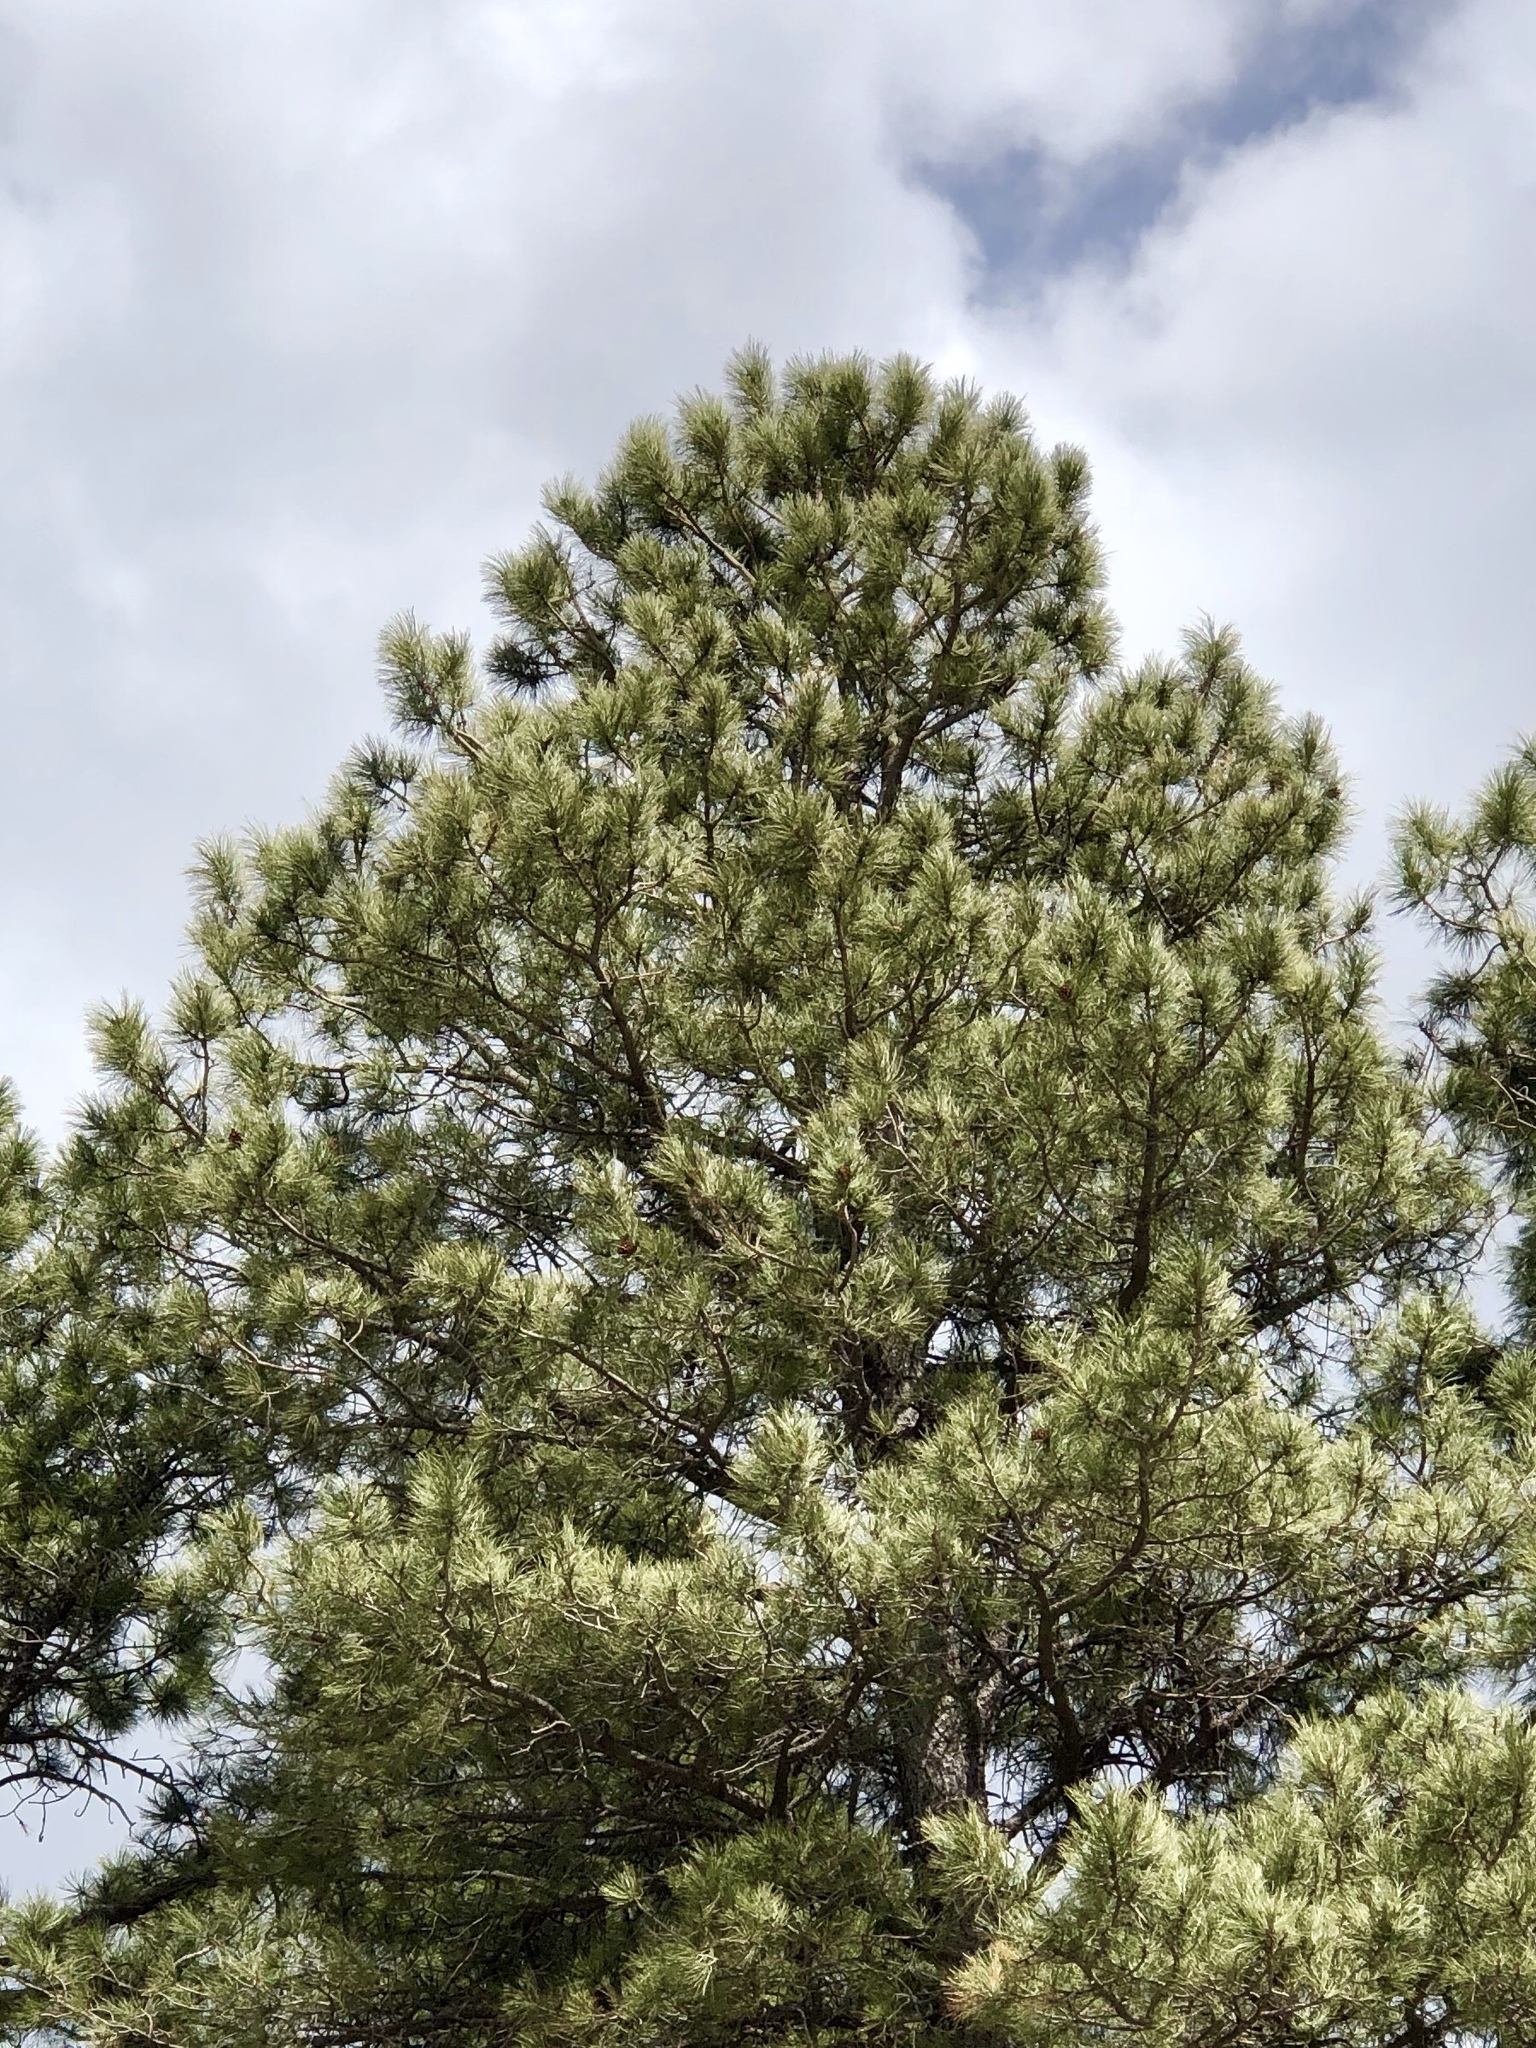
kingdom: Plantae
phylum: Tracheophyta
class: Pinopsida
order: Pinales
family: Pinaceae
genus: Pinus
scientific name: Pinus ponderosa
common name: Western yellow-pine
